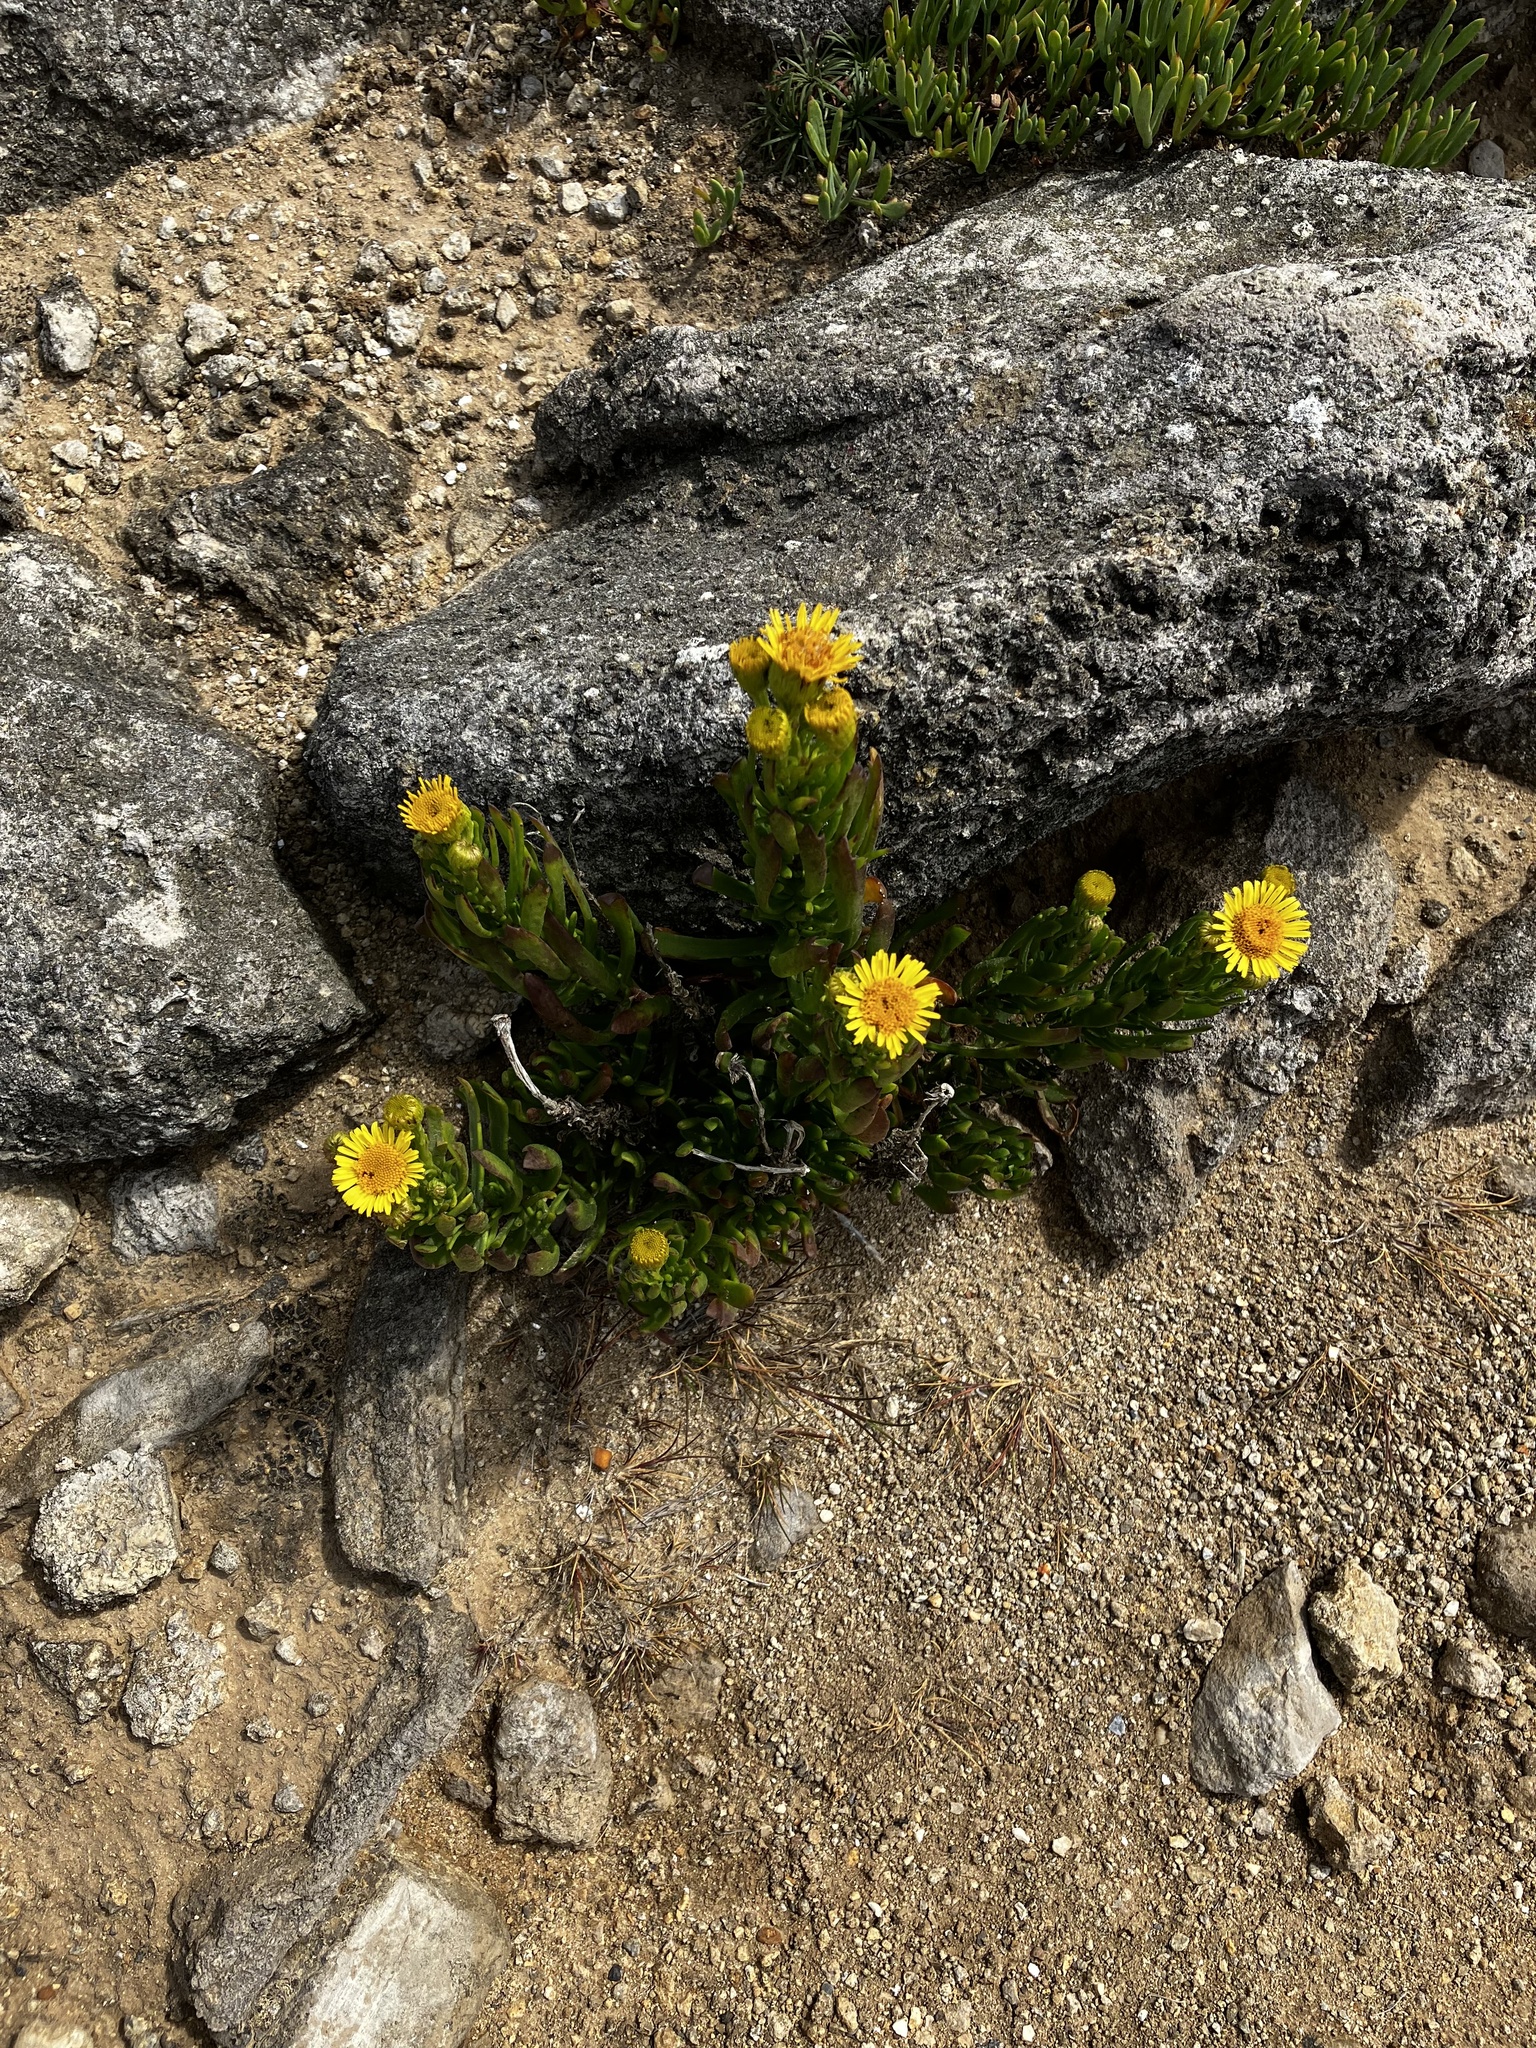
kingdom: Plantae
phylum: Tracheophyta
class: Magnoliopsida
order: Asterales
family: Asteraceae
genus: Limbarda
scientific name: Limbarda crithmoides
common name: Golden samphire
